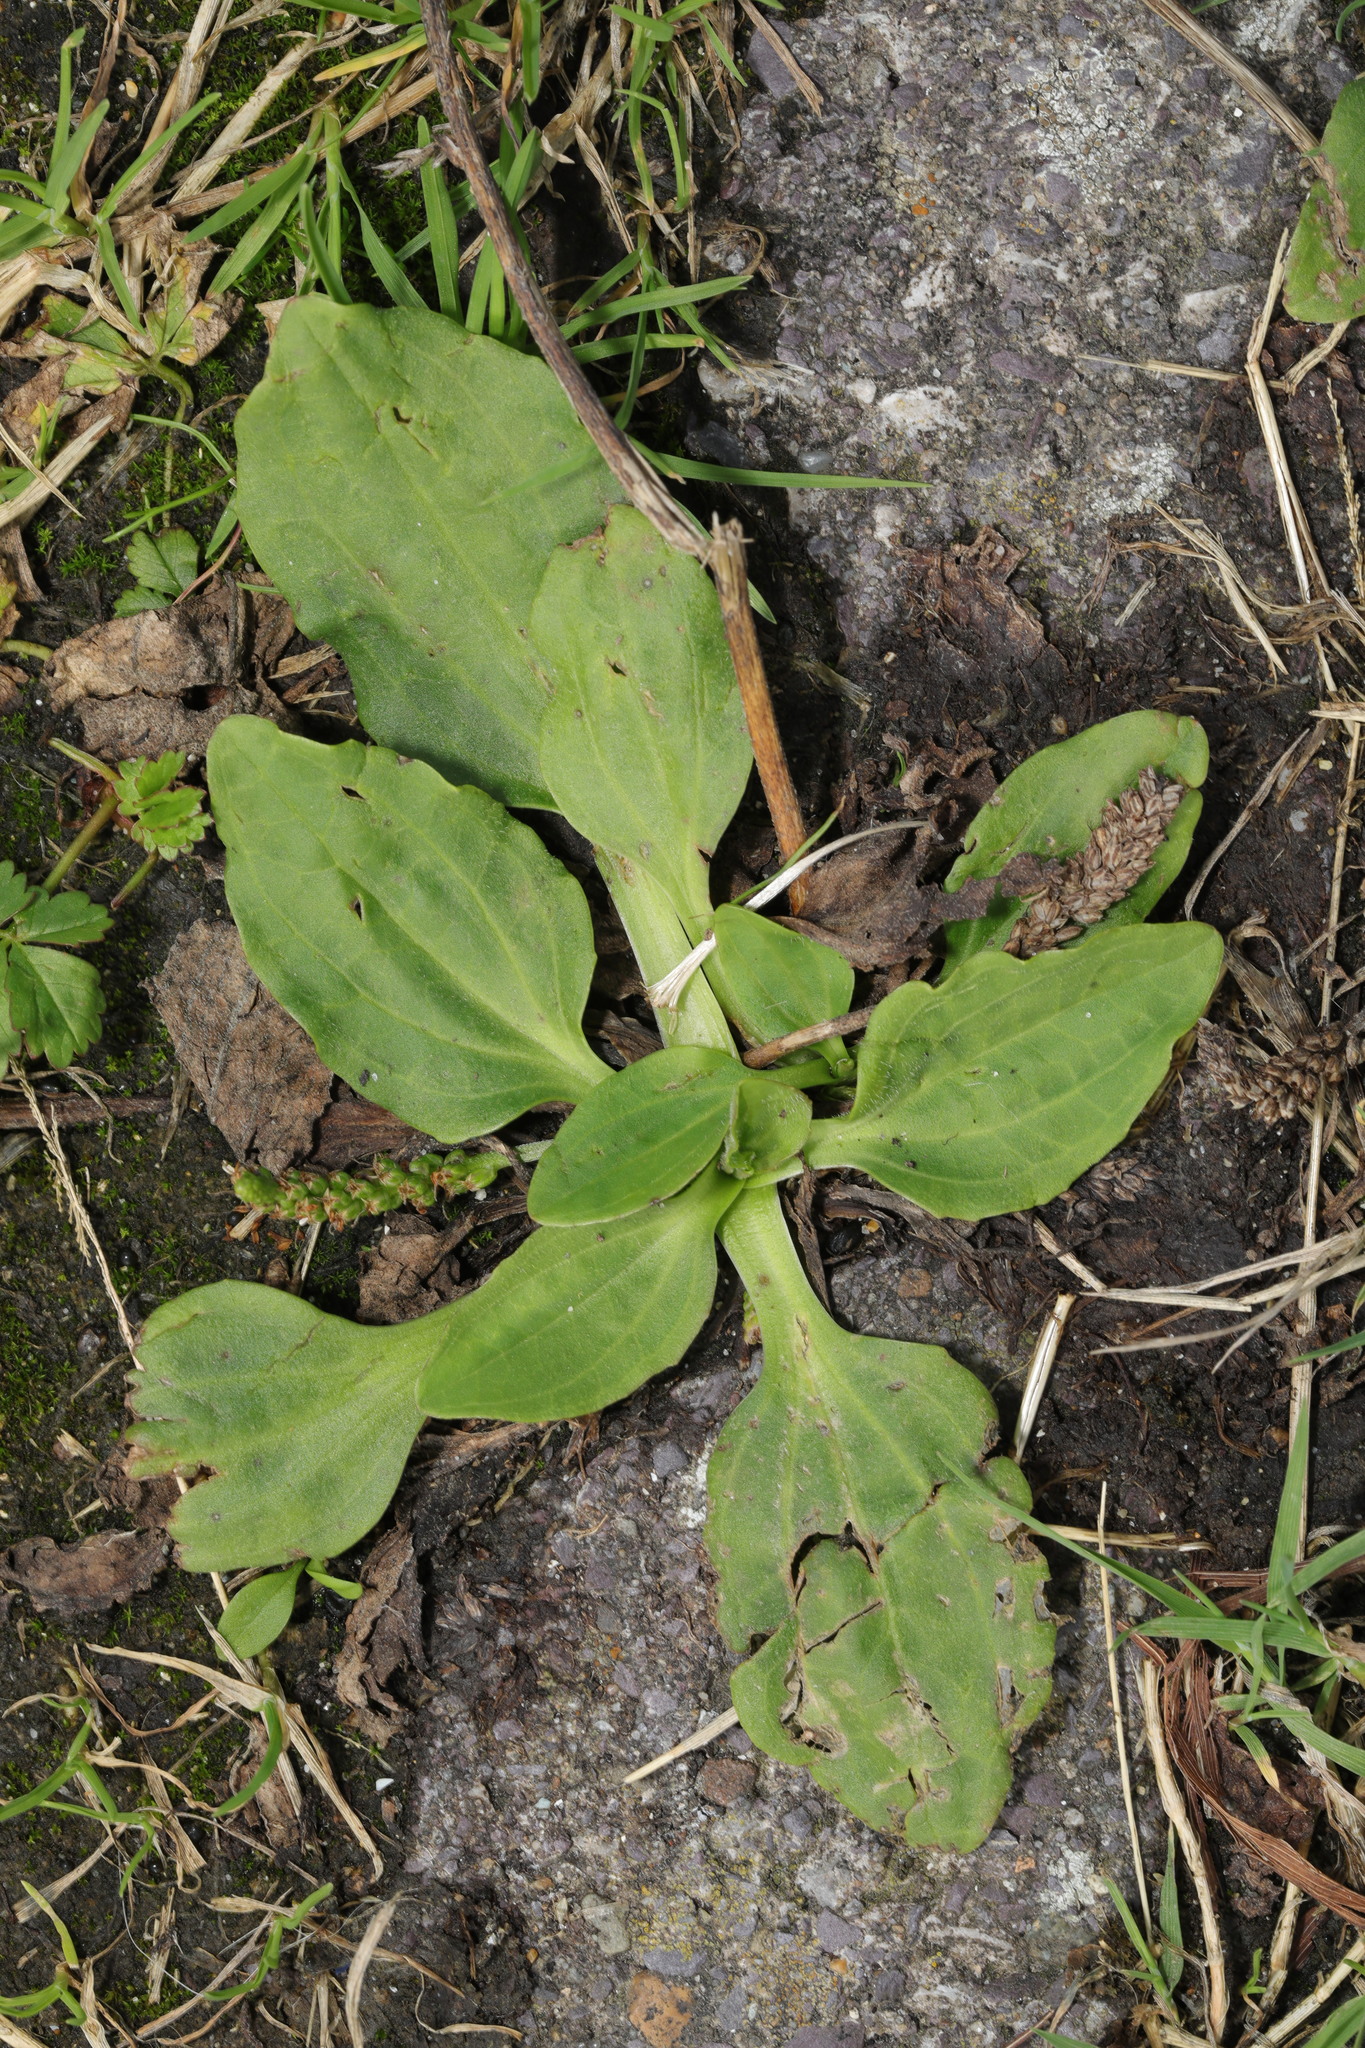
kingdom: Plantae
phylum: Tracheophyta
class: Magnoliopsida
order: Lamiales
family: Plantaginaceae
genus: Plantago
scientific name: Plantago major
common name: Common plantain
